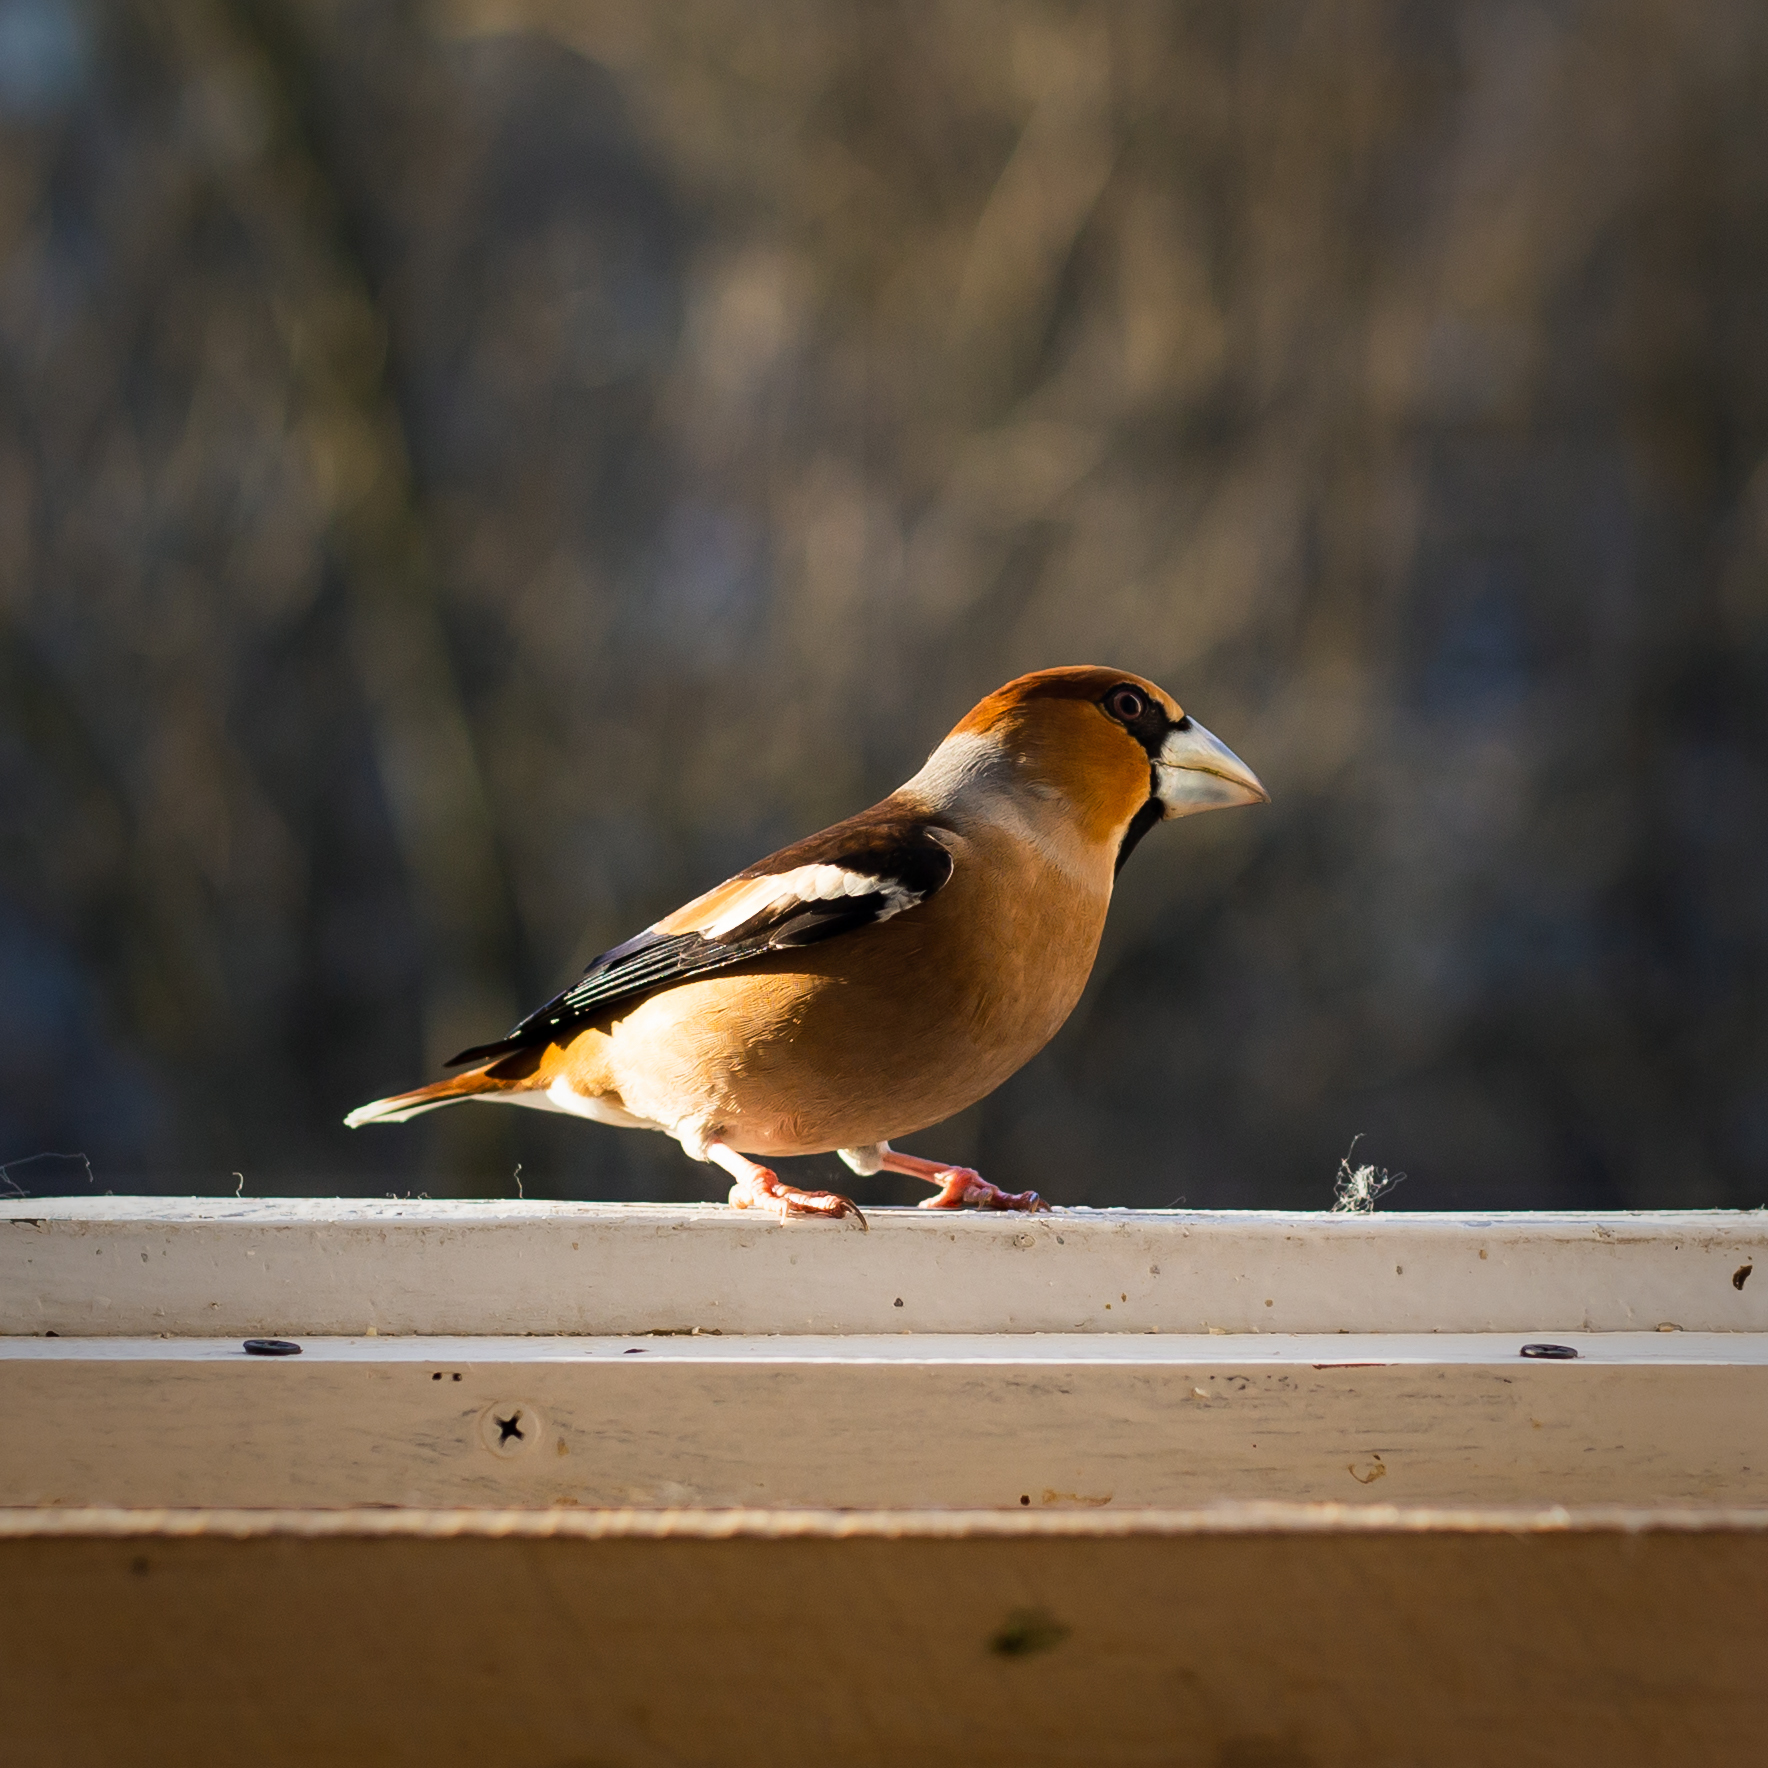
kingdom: Animalia
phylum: Chordata
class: Aves
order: Passeriformes
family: Fringillidae
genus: Coccothraustes
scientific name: Coccothraustes coccothraustes
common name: Hawfinch
